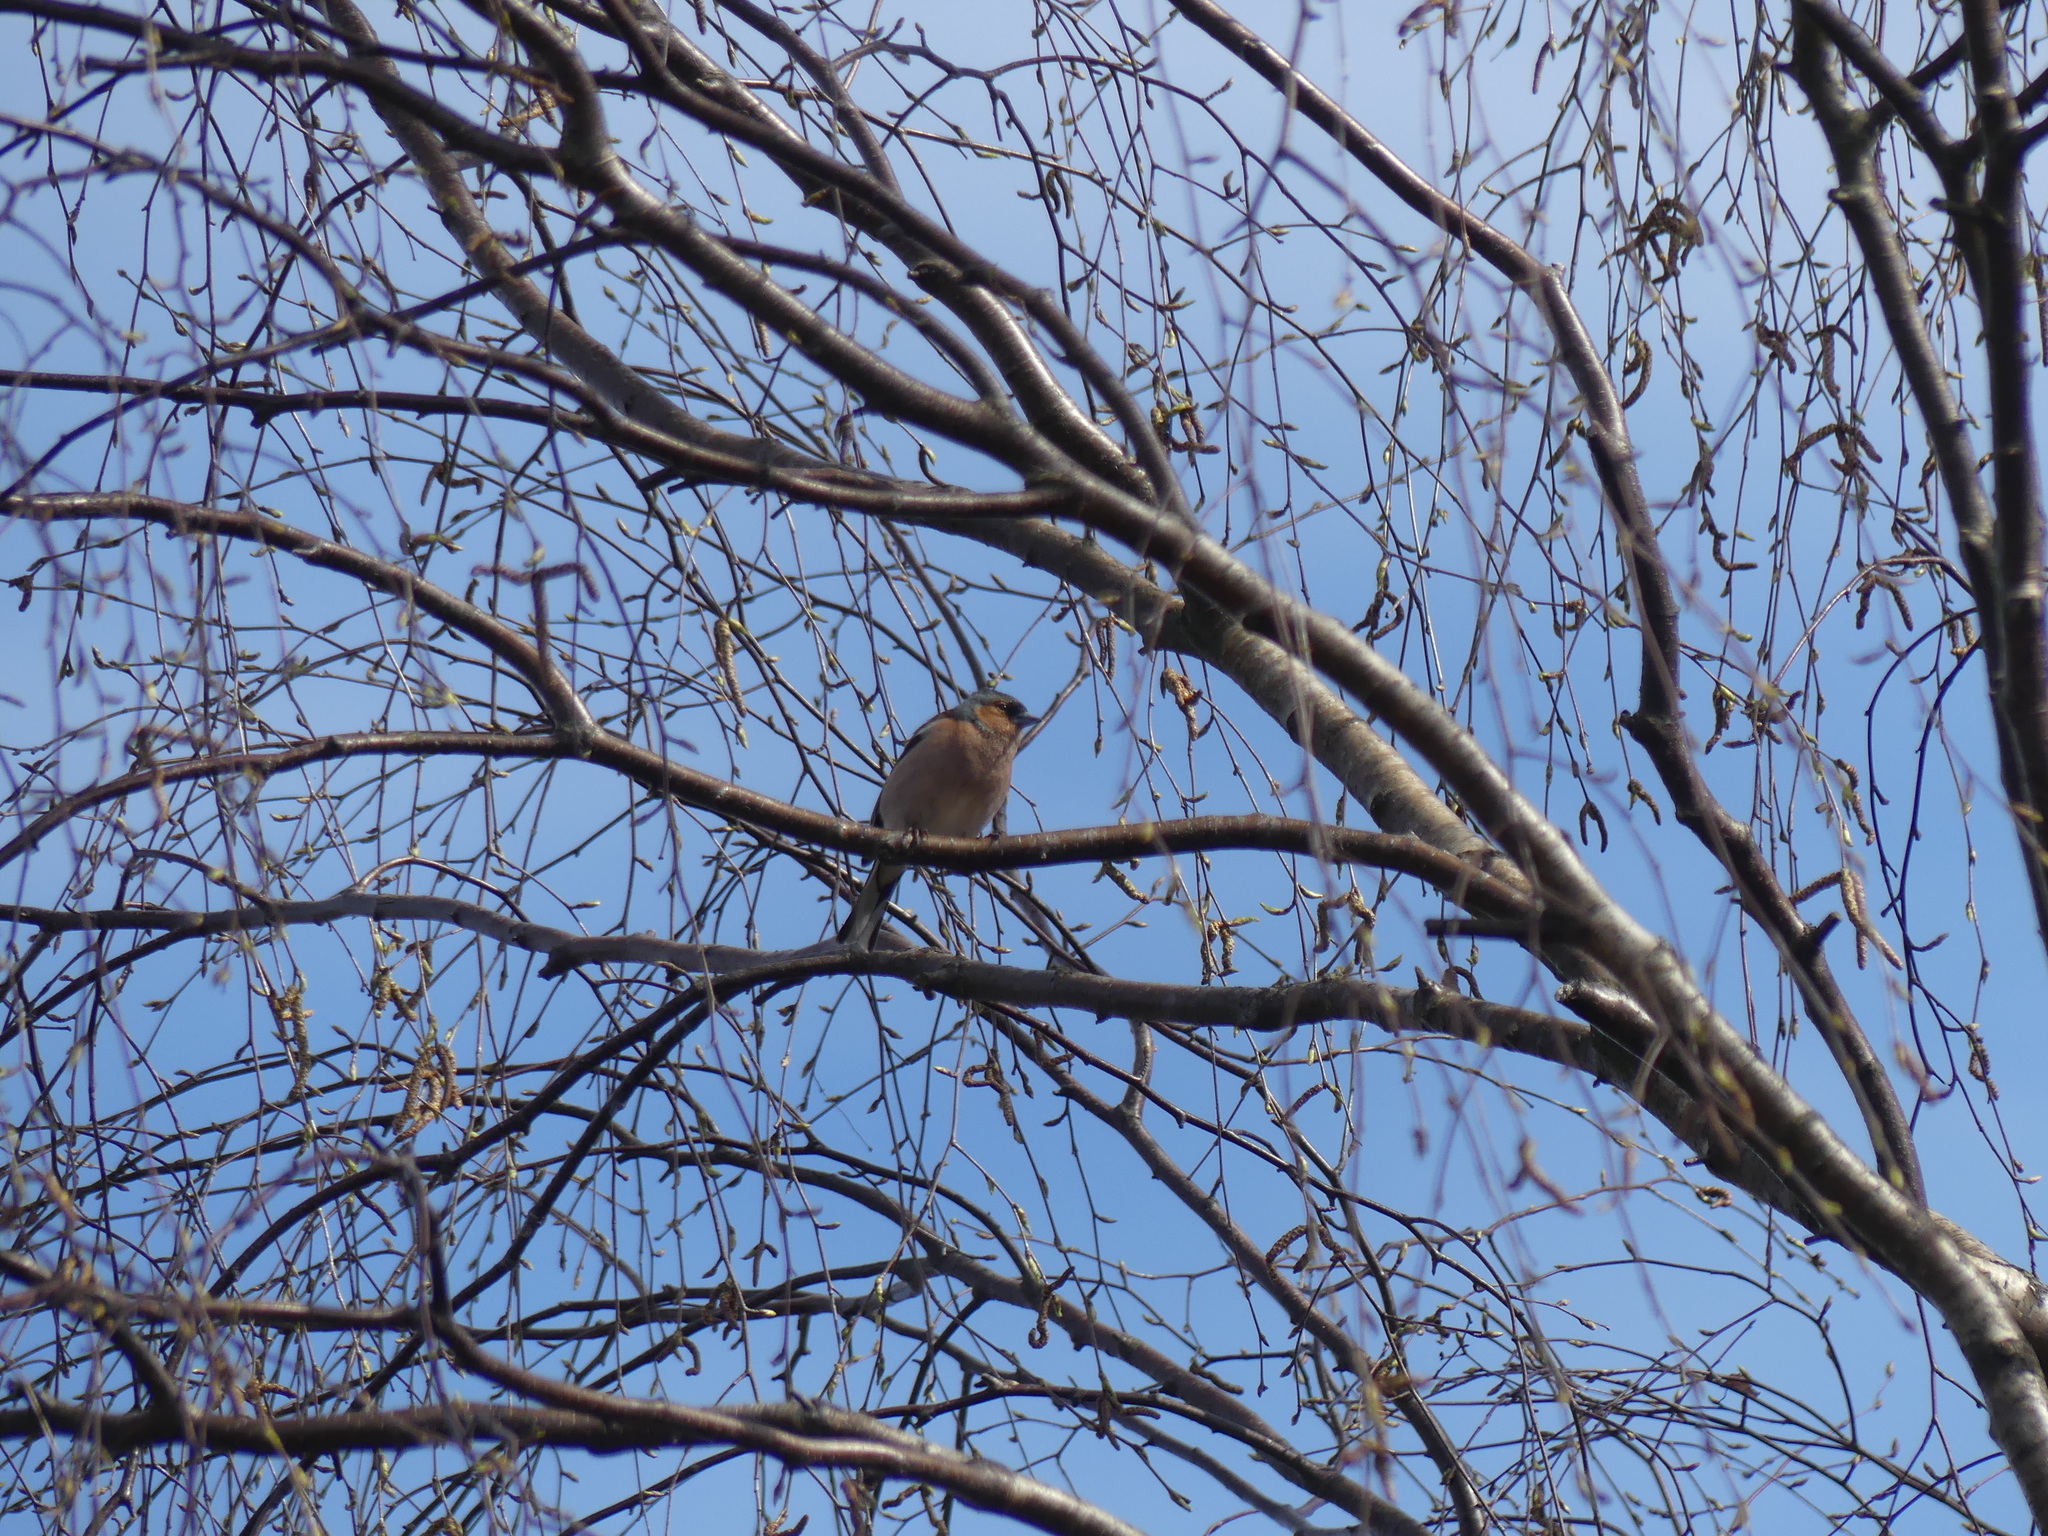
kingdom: Animalia
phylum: Chordata
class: Aves
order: Passeriformes
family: Fringillidae
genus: Fringilla
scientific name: Fringilla coelebs
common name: Common chaffinch
